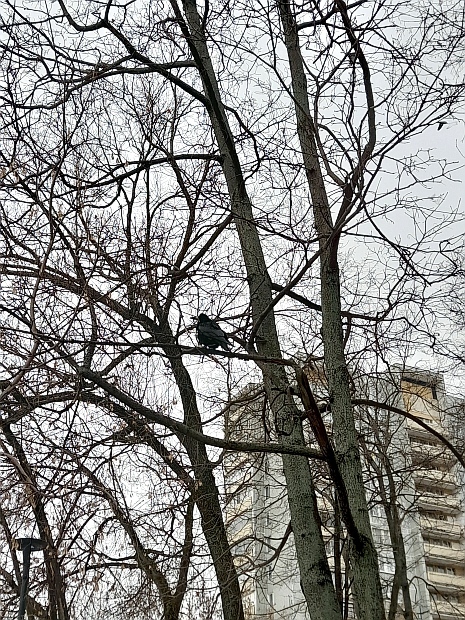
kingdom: Animalia
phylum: Chordata
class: Aves
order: Passeriformes
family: Corvidae
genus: Corvus
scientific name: Corvus frugilegus
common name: Rook
